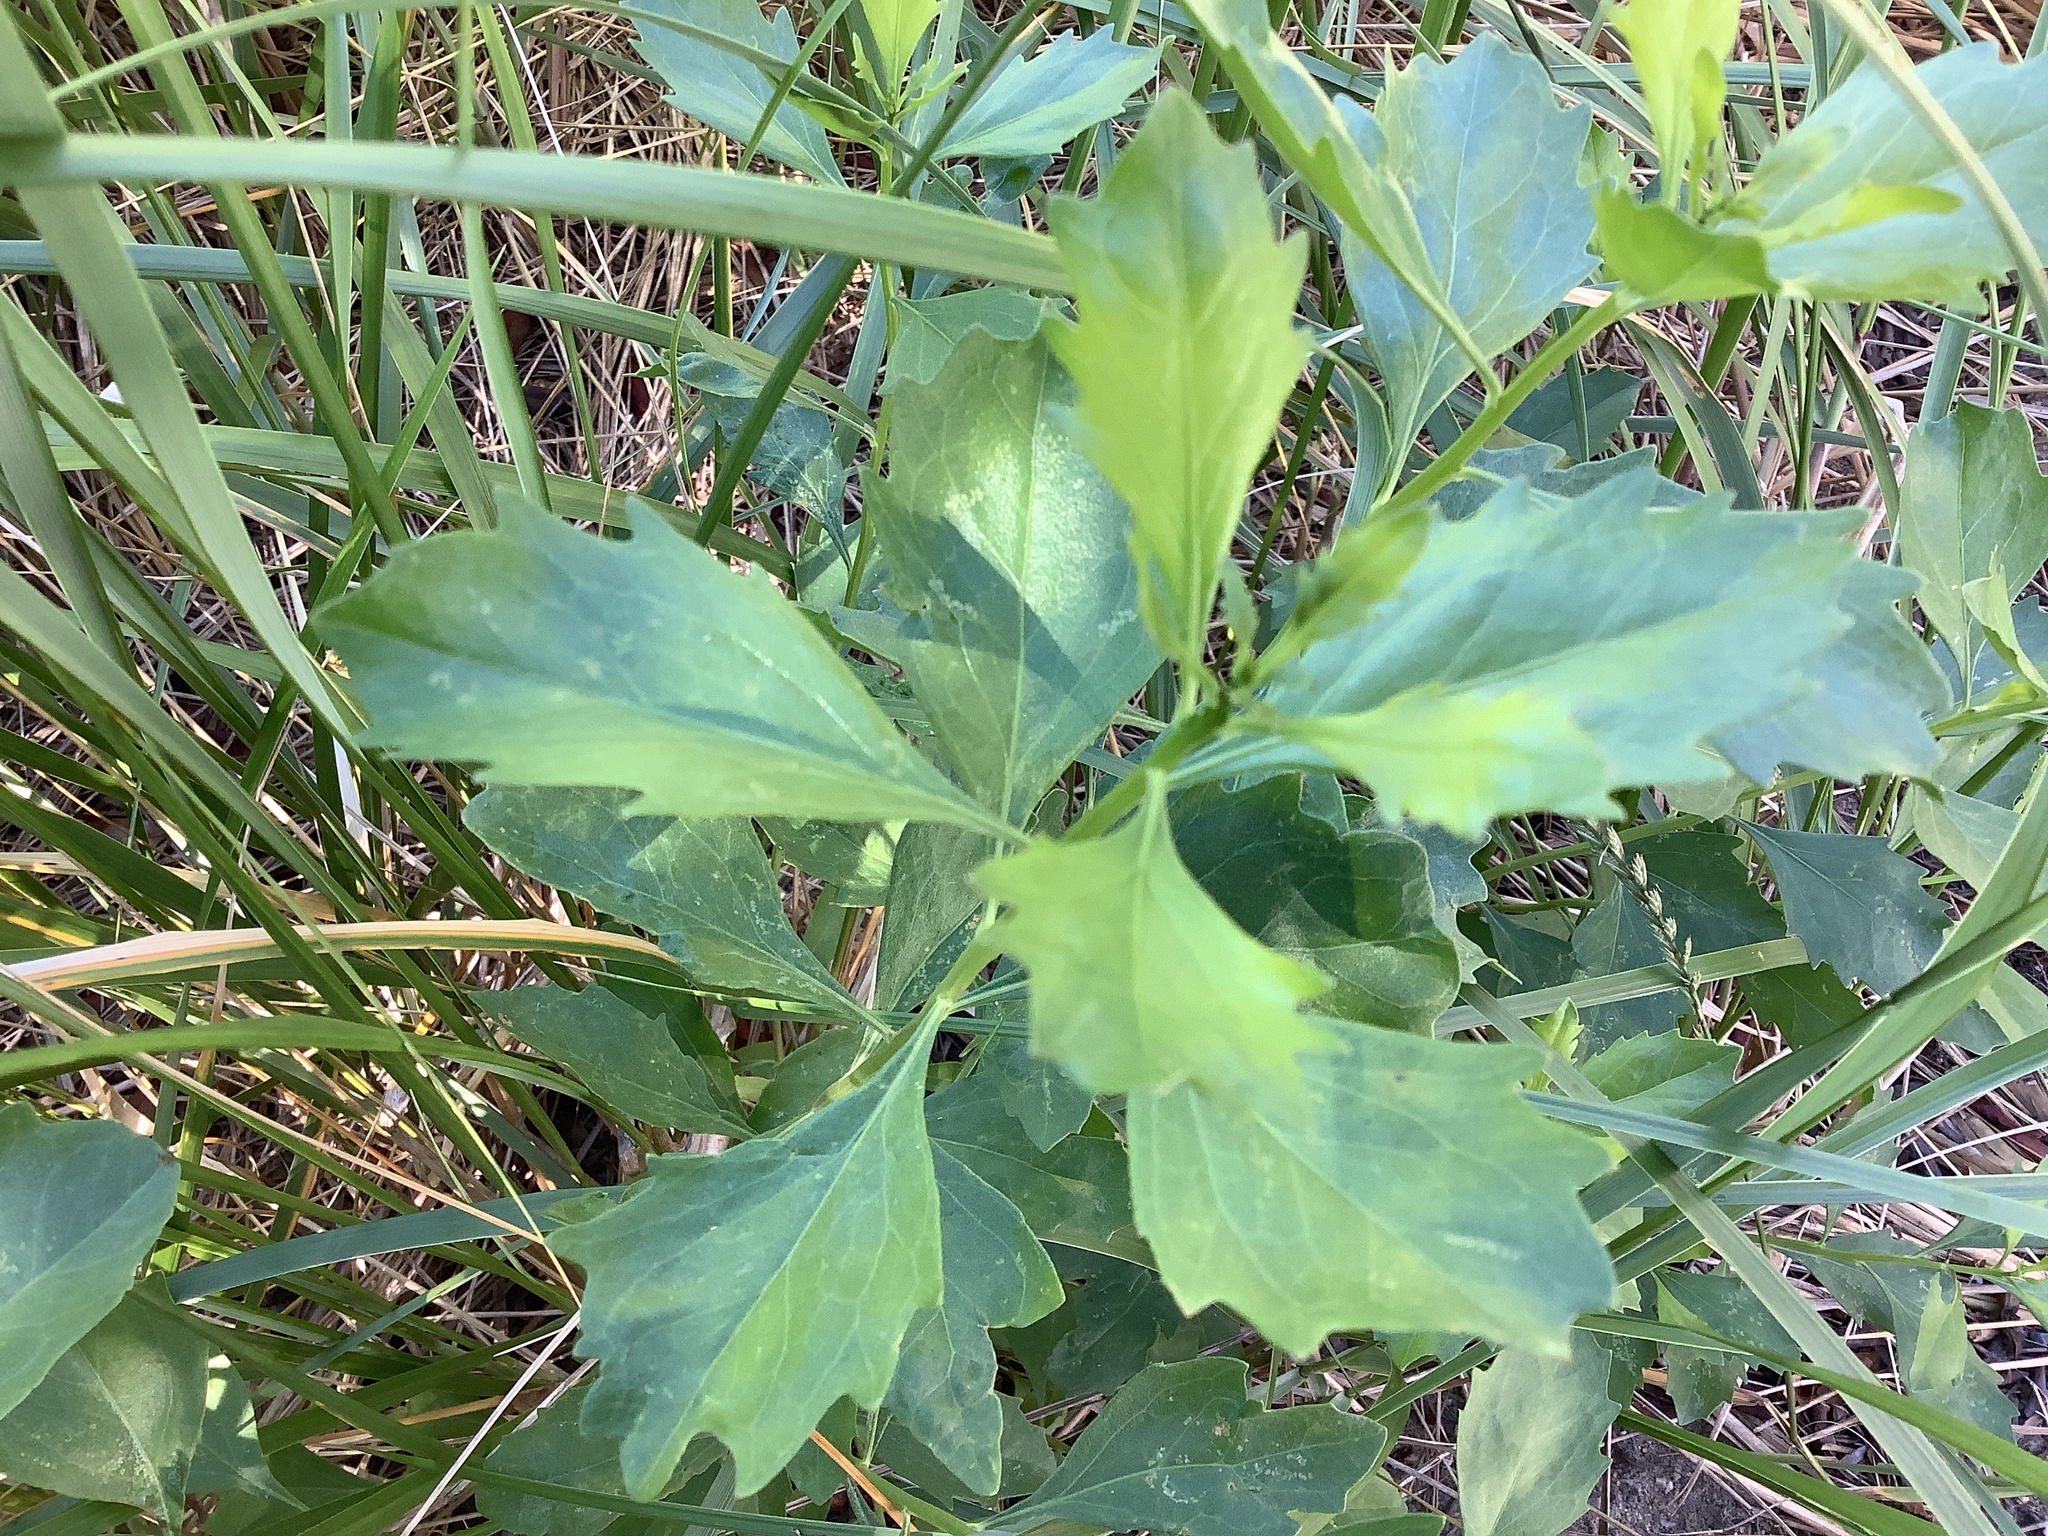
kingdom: Plantae
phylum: Tracheophyta
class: Magnoliopsida
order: Asterales
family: Asteraceae
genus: Baccharis
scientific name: Baccharis halimifolia
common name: Eastern baccharis
